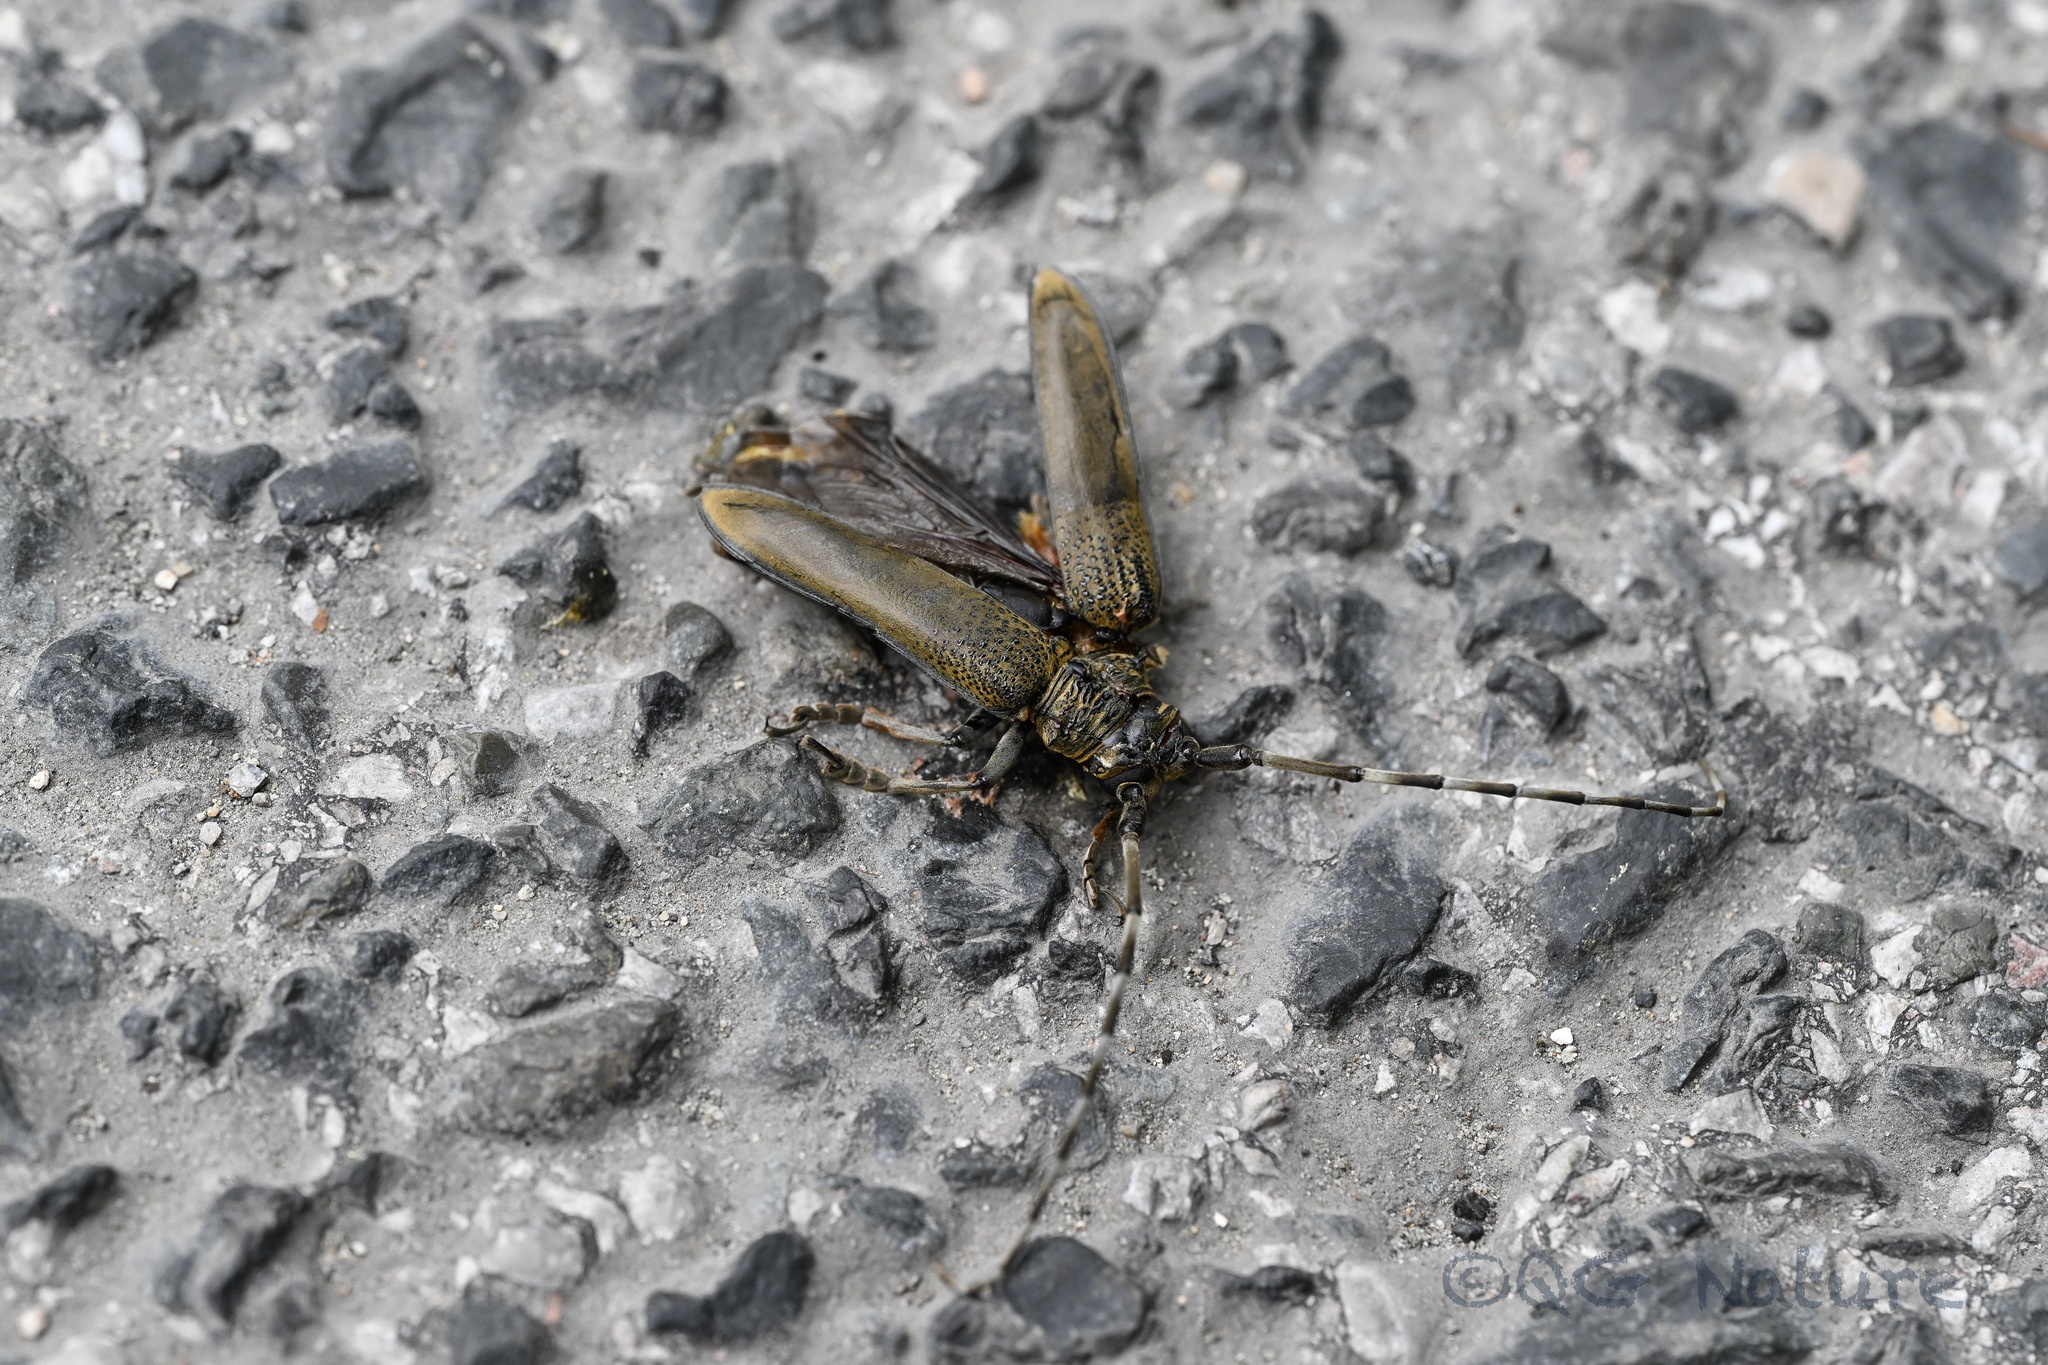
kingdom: Animalia
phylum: Arthropoda
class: Insecta
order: Coleoptera
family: Cerambycidae
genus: Apriona
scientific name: Apriona rugicollis
